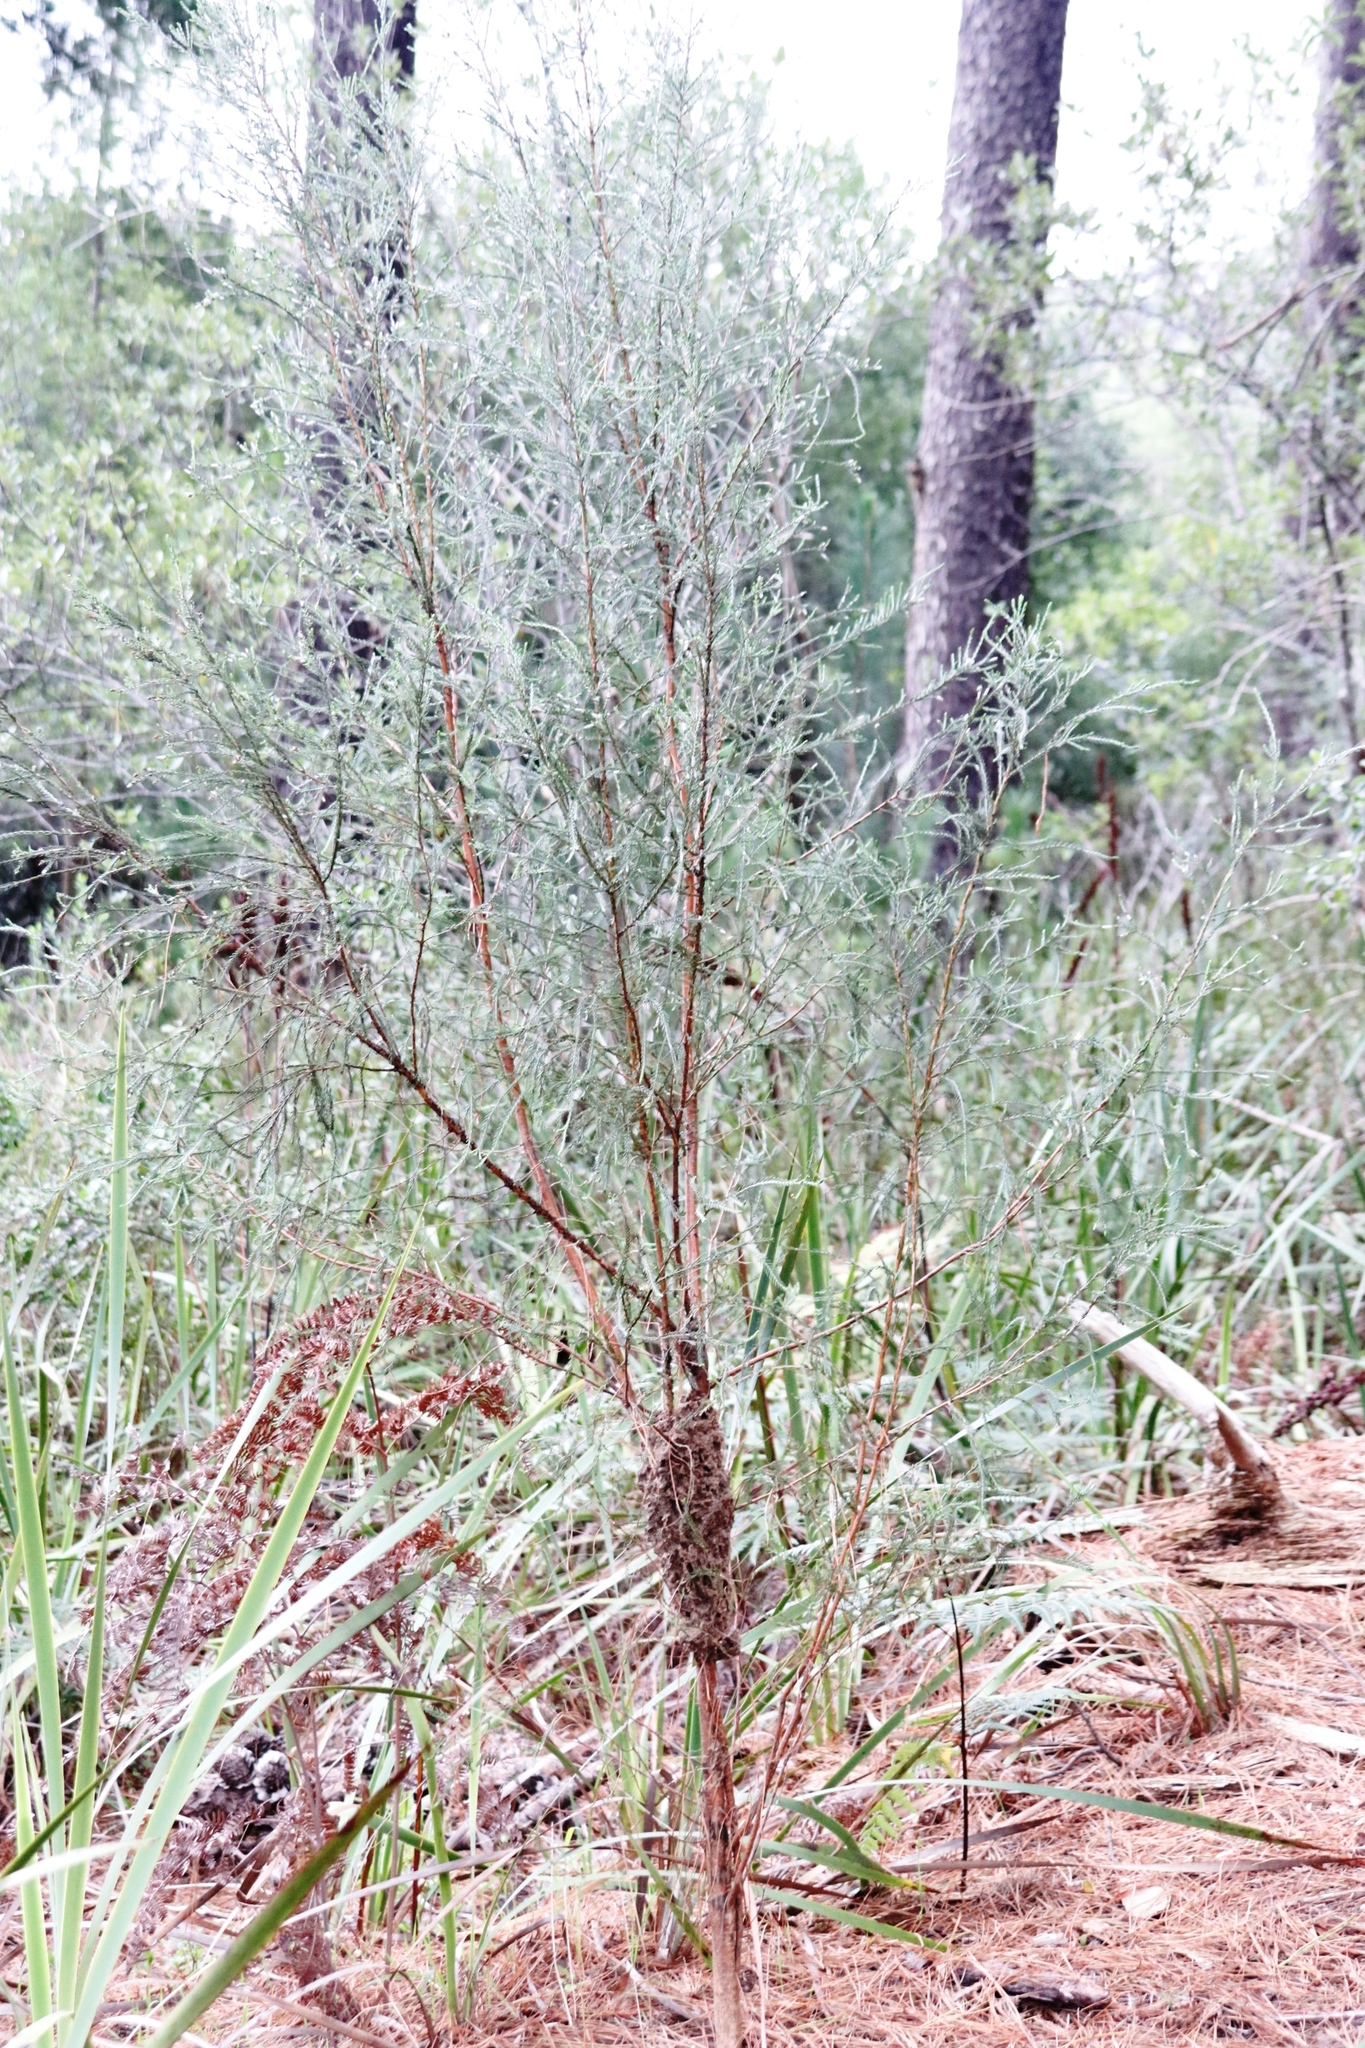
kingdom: Animalia
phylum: Arthropoda
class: Insecta
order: Hymenoptera
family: Formicidae
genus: Crematogaster
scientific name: Crematogaster peringueyi
